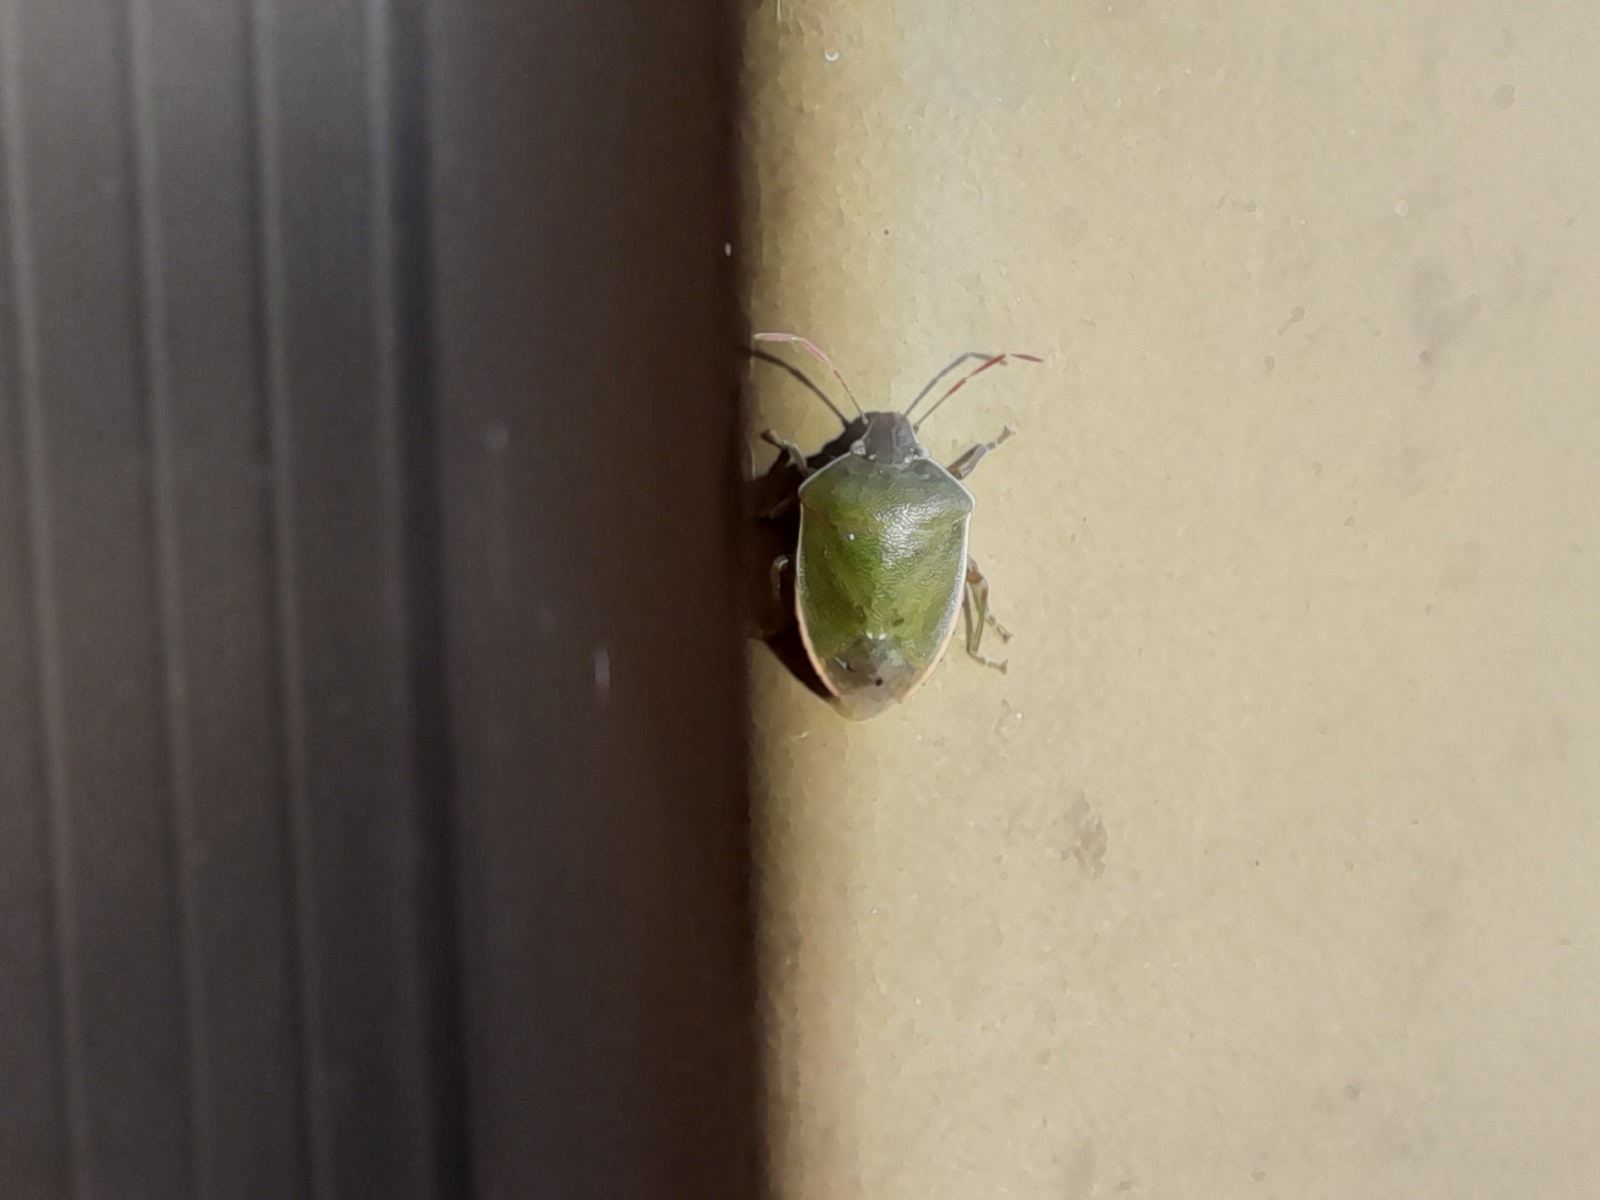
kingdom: Animalia
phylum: Arthropoda
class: Insecta
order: Hemiptera
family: Pentatomidae
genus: Acrosternum
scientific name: Acrosternum heegeri
